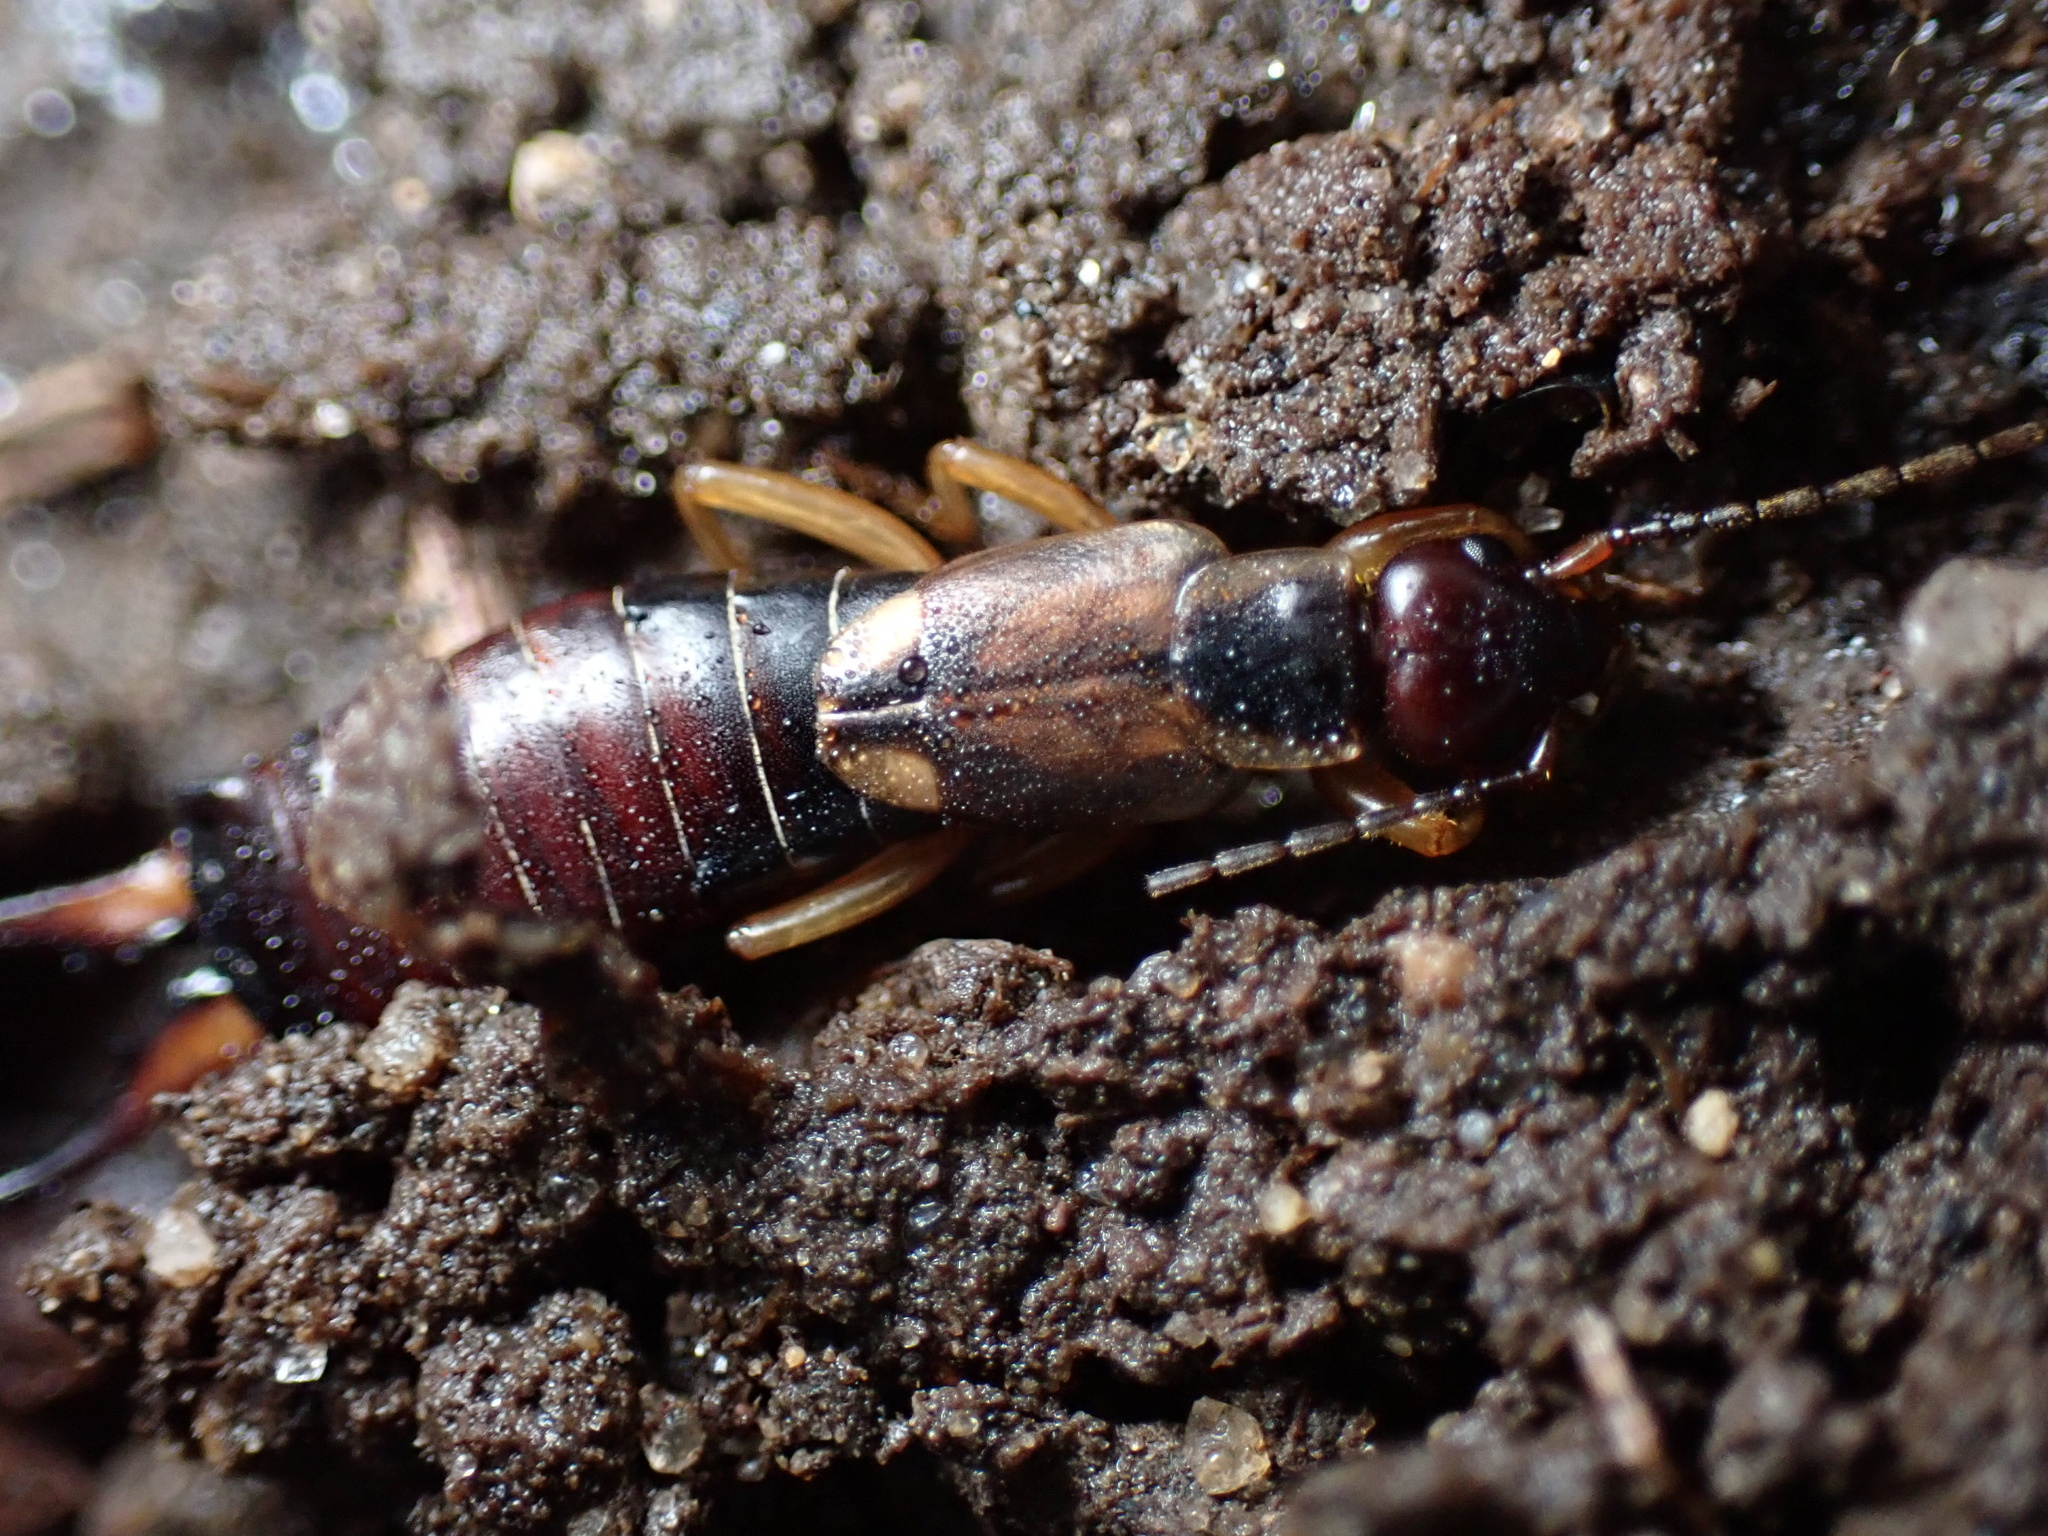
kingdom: Animalia
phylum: Arthropoda
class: Insecta
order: Dermaptera
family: Forficulidae
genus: Forficula
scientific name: Forficula
